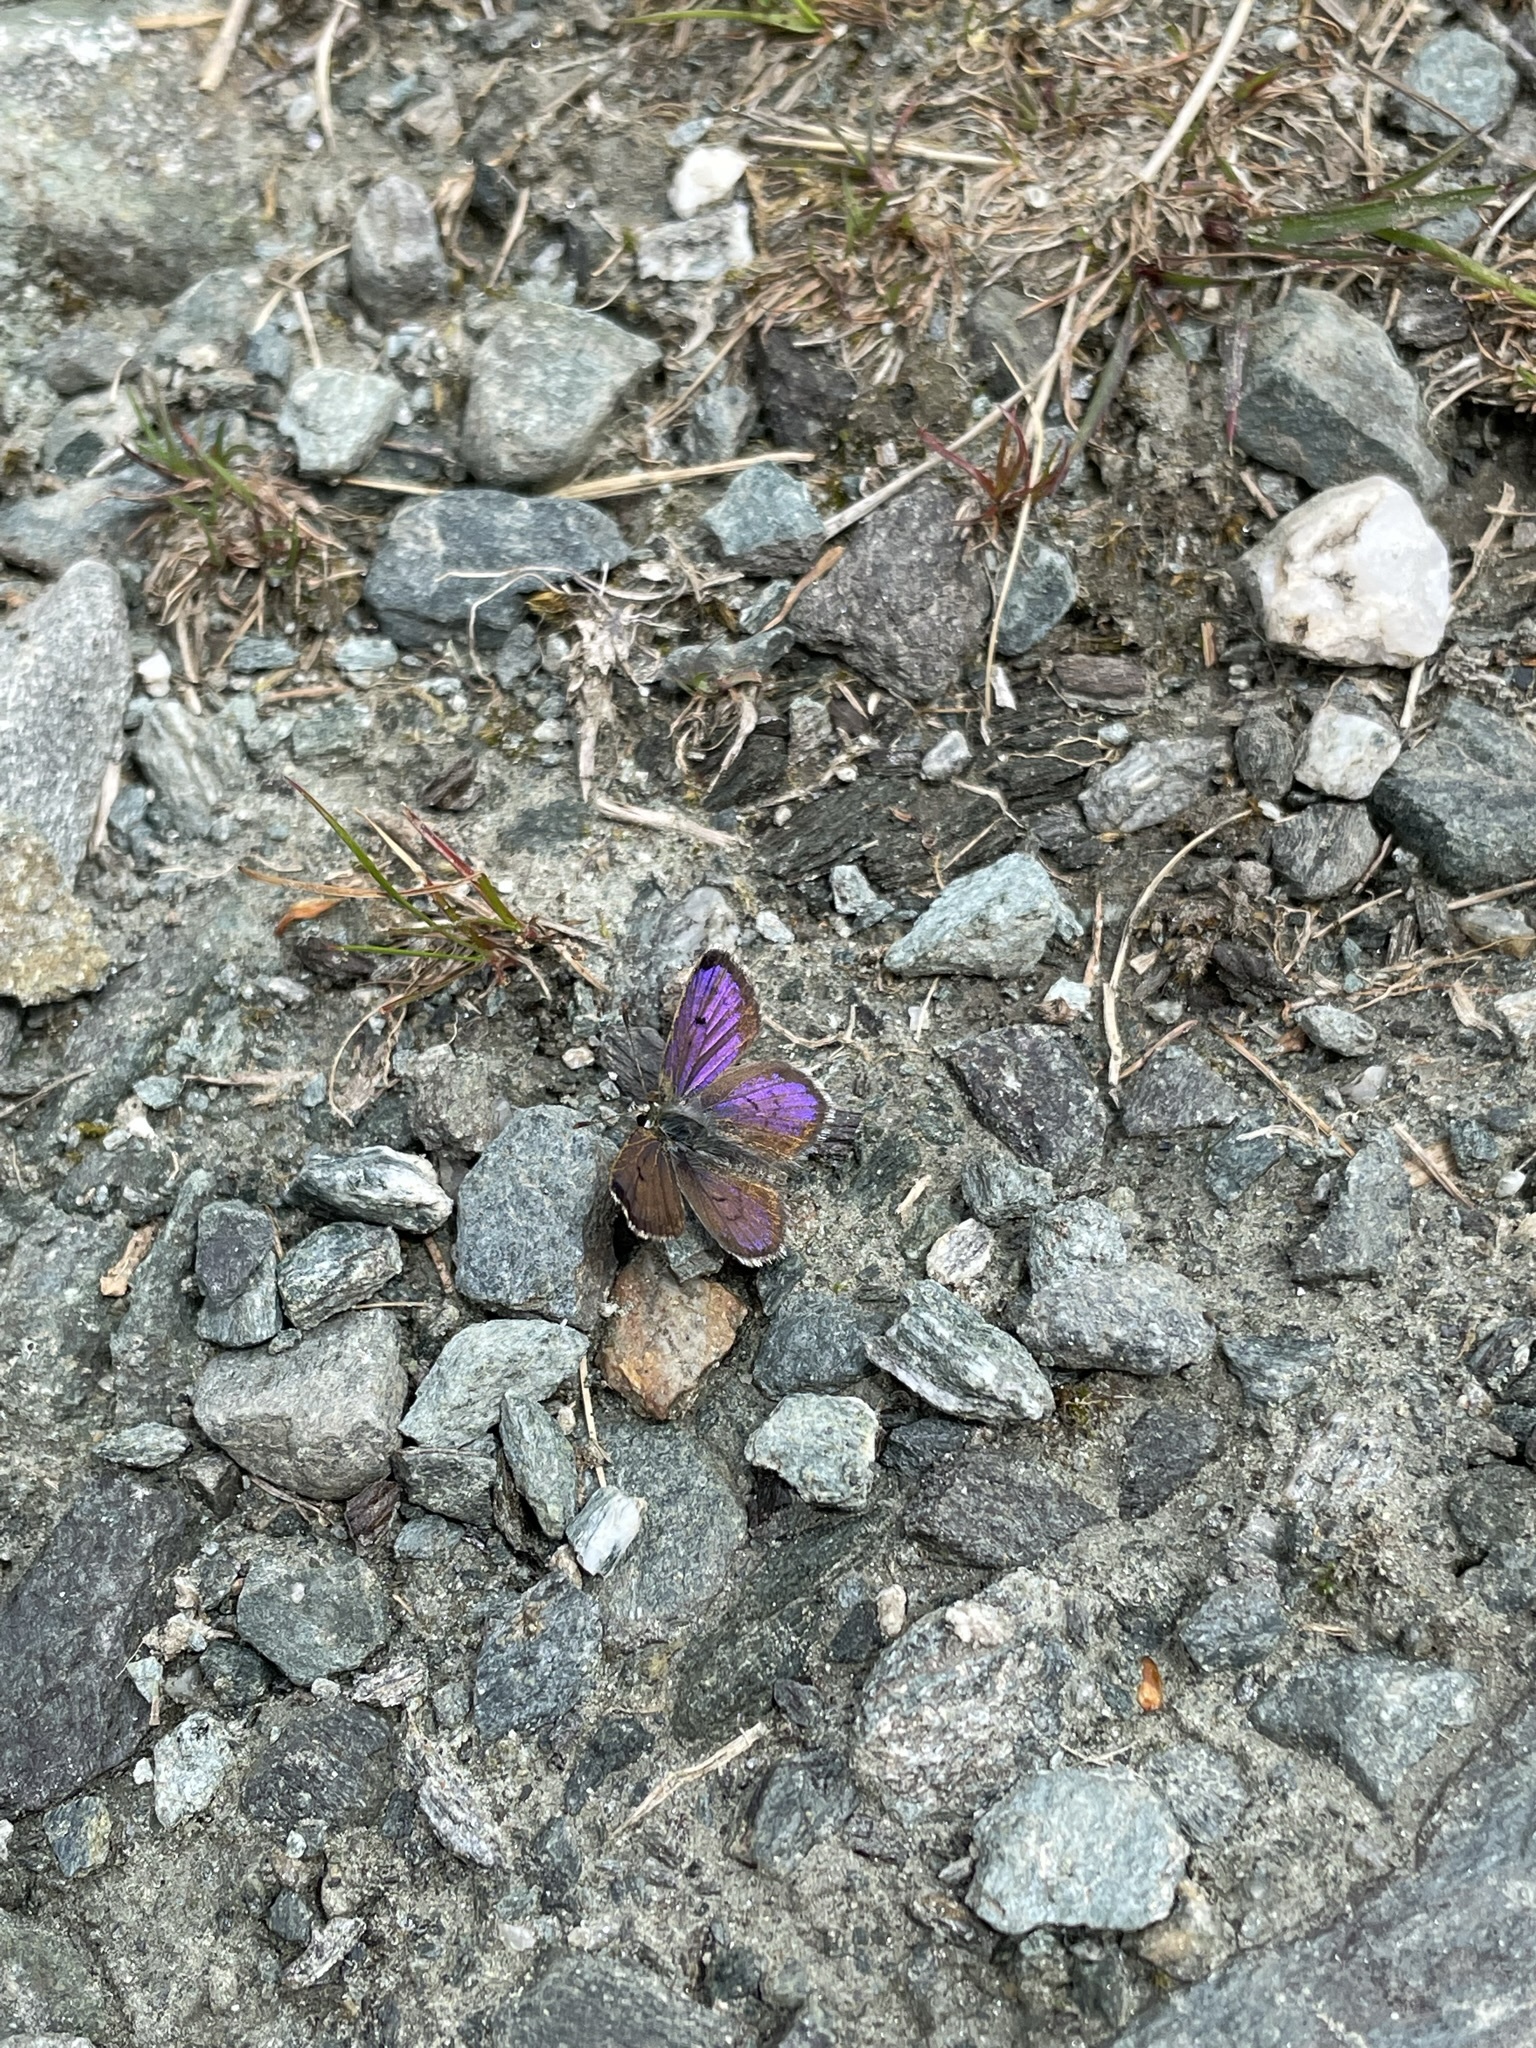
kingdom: Animalia
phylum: Arthropoda
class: Insecta
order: Lepidoptera
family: Lycaenidae
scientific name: Lycaenidae
